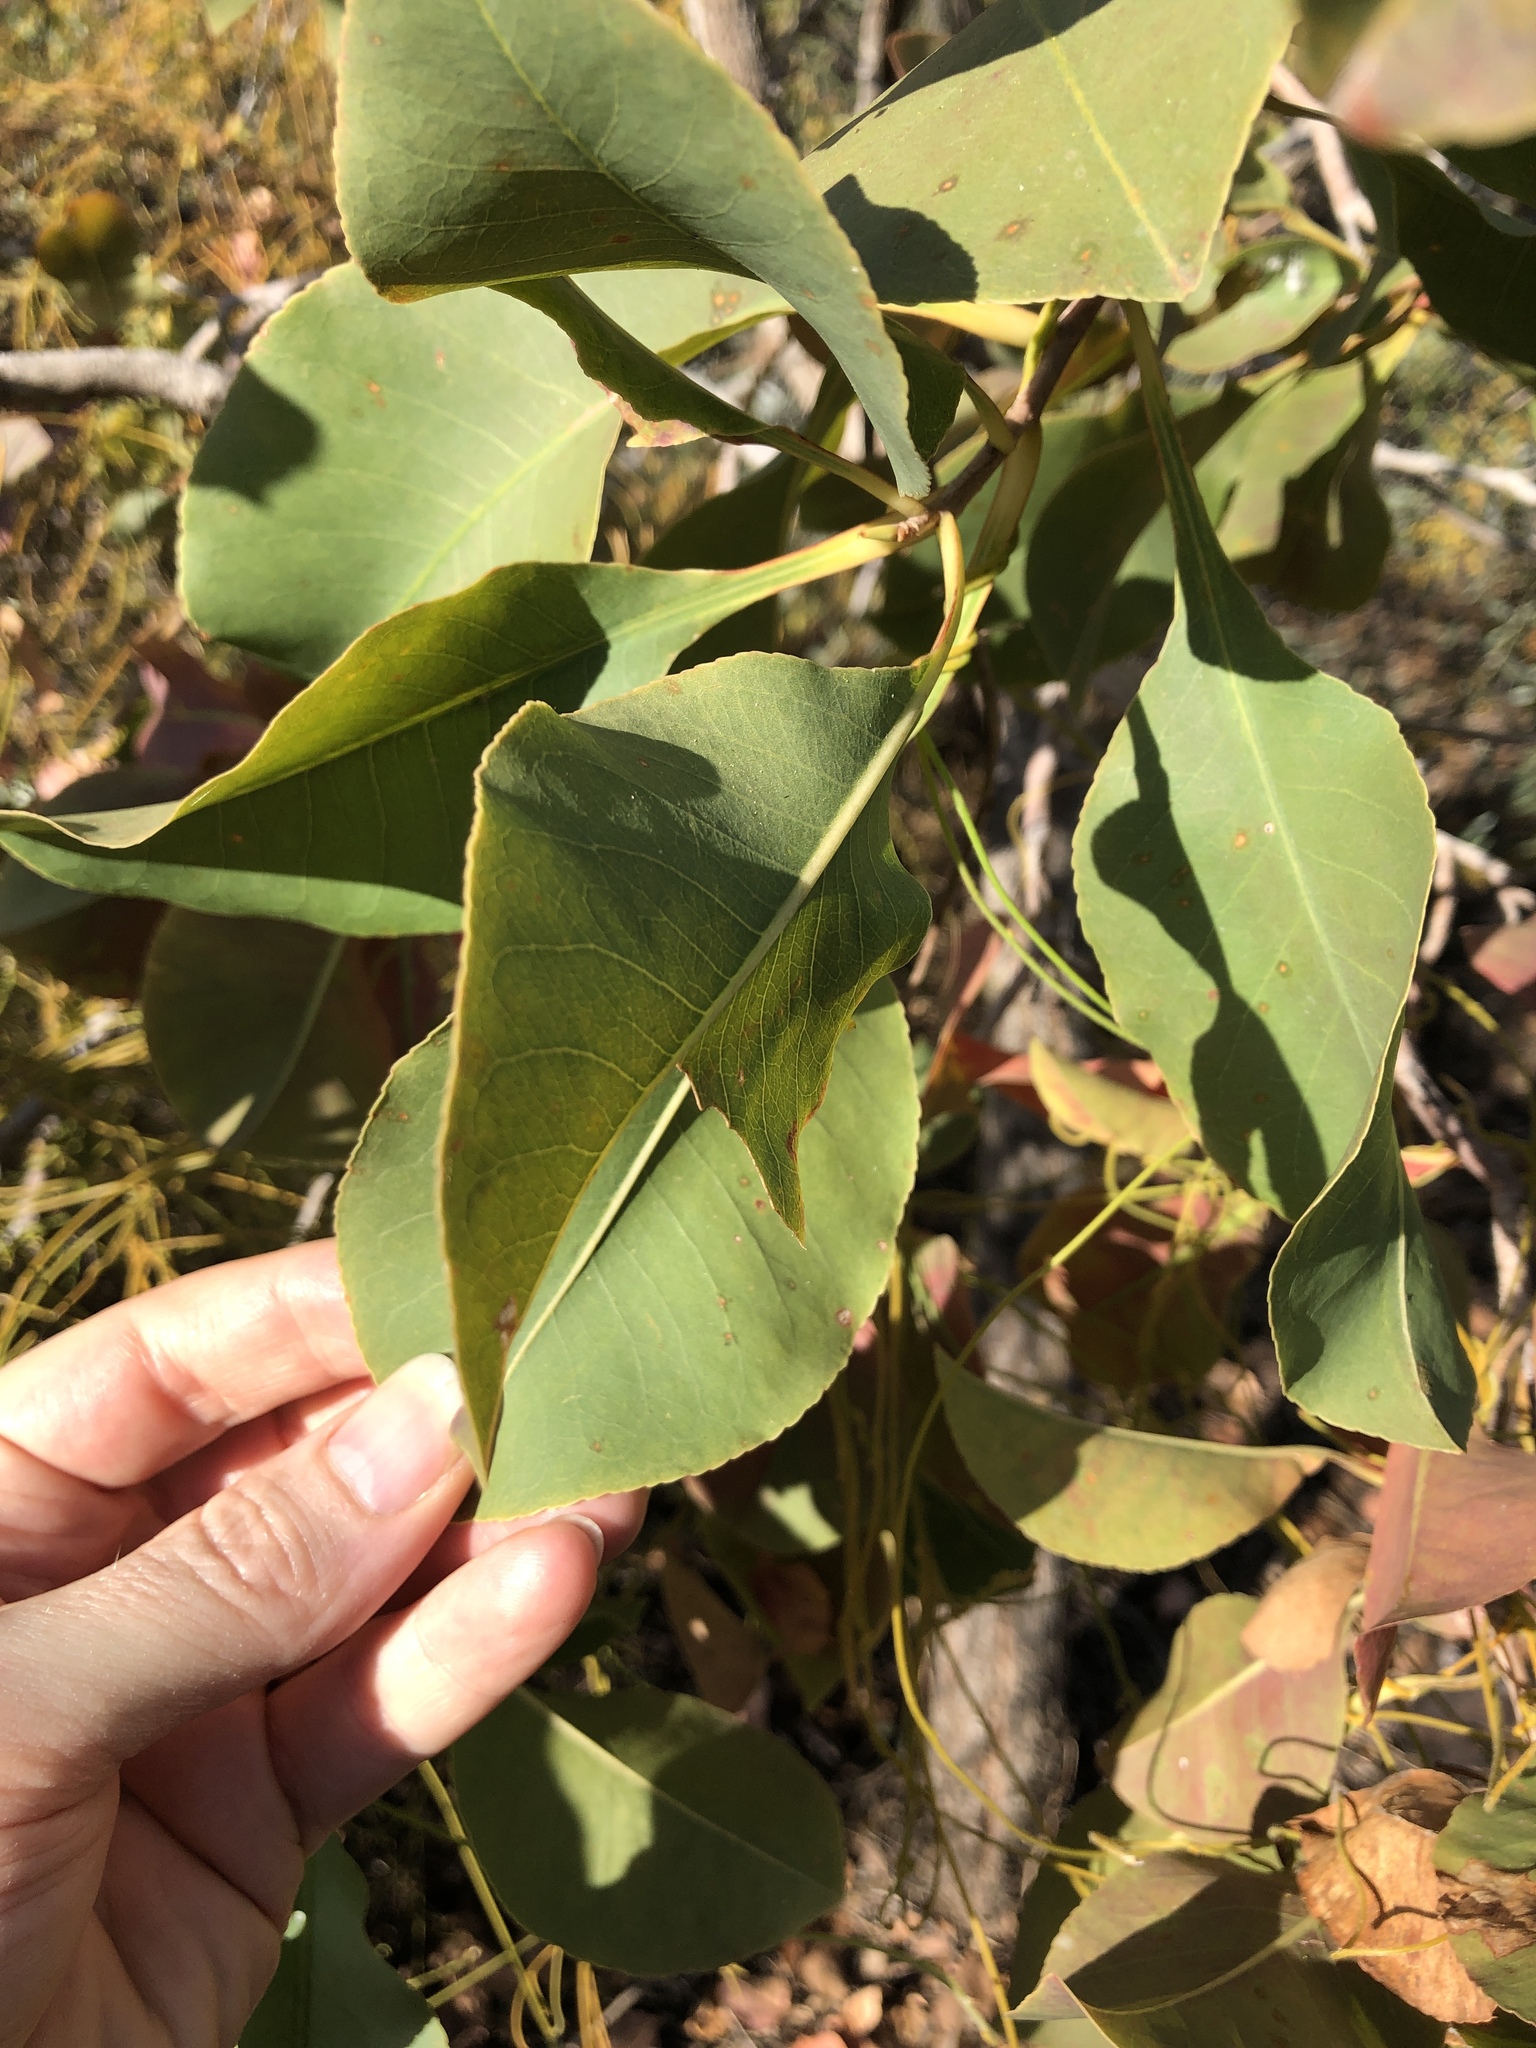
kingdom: Plantae
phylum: Tracheophyta
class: Magnoliopsida
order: Ericales
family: Lecythidaceae
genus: Planchonia
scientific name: Planchonia careya
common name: Cockatoo-apple
